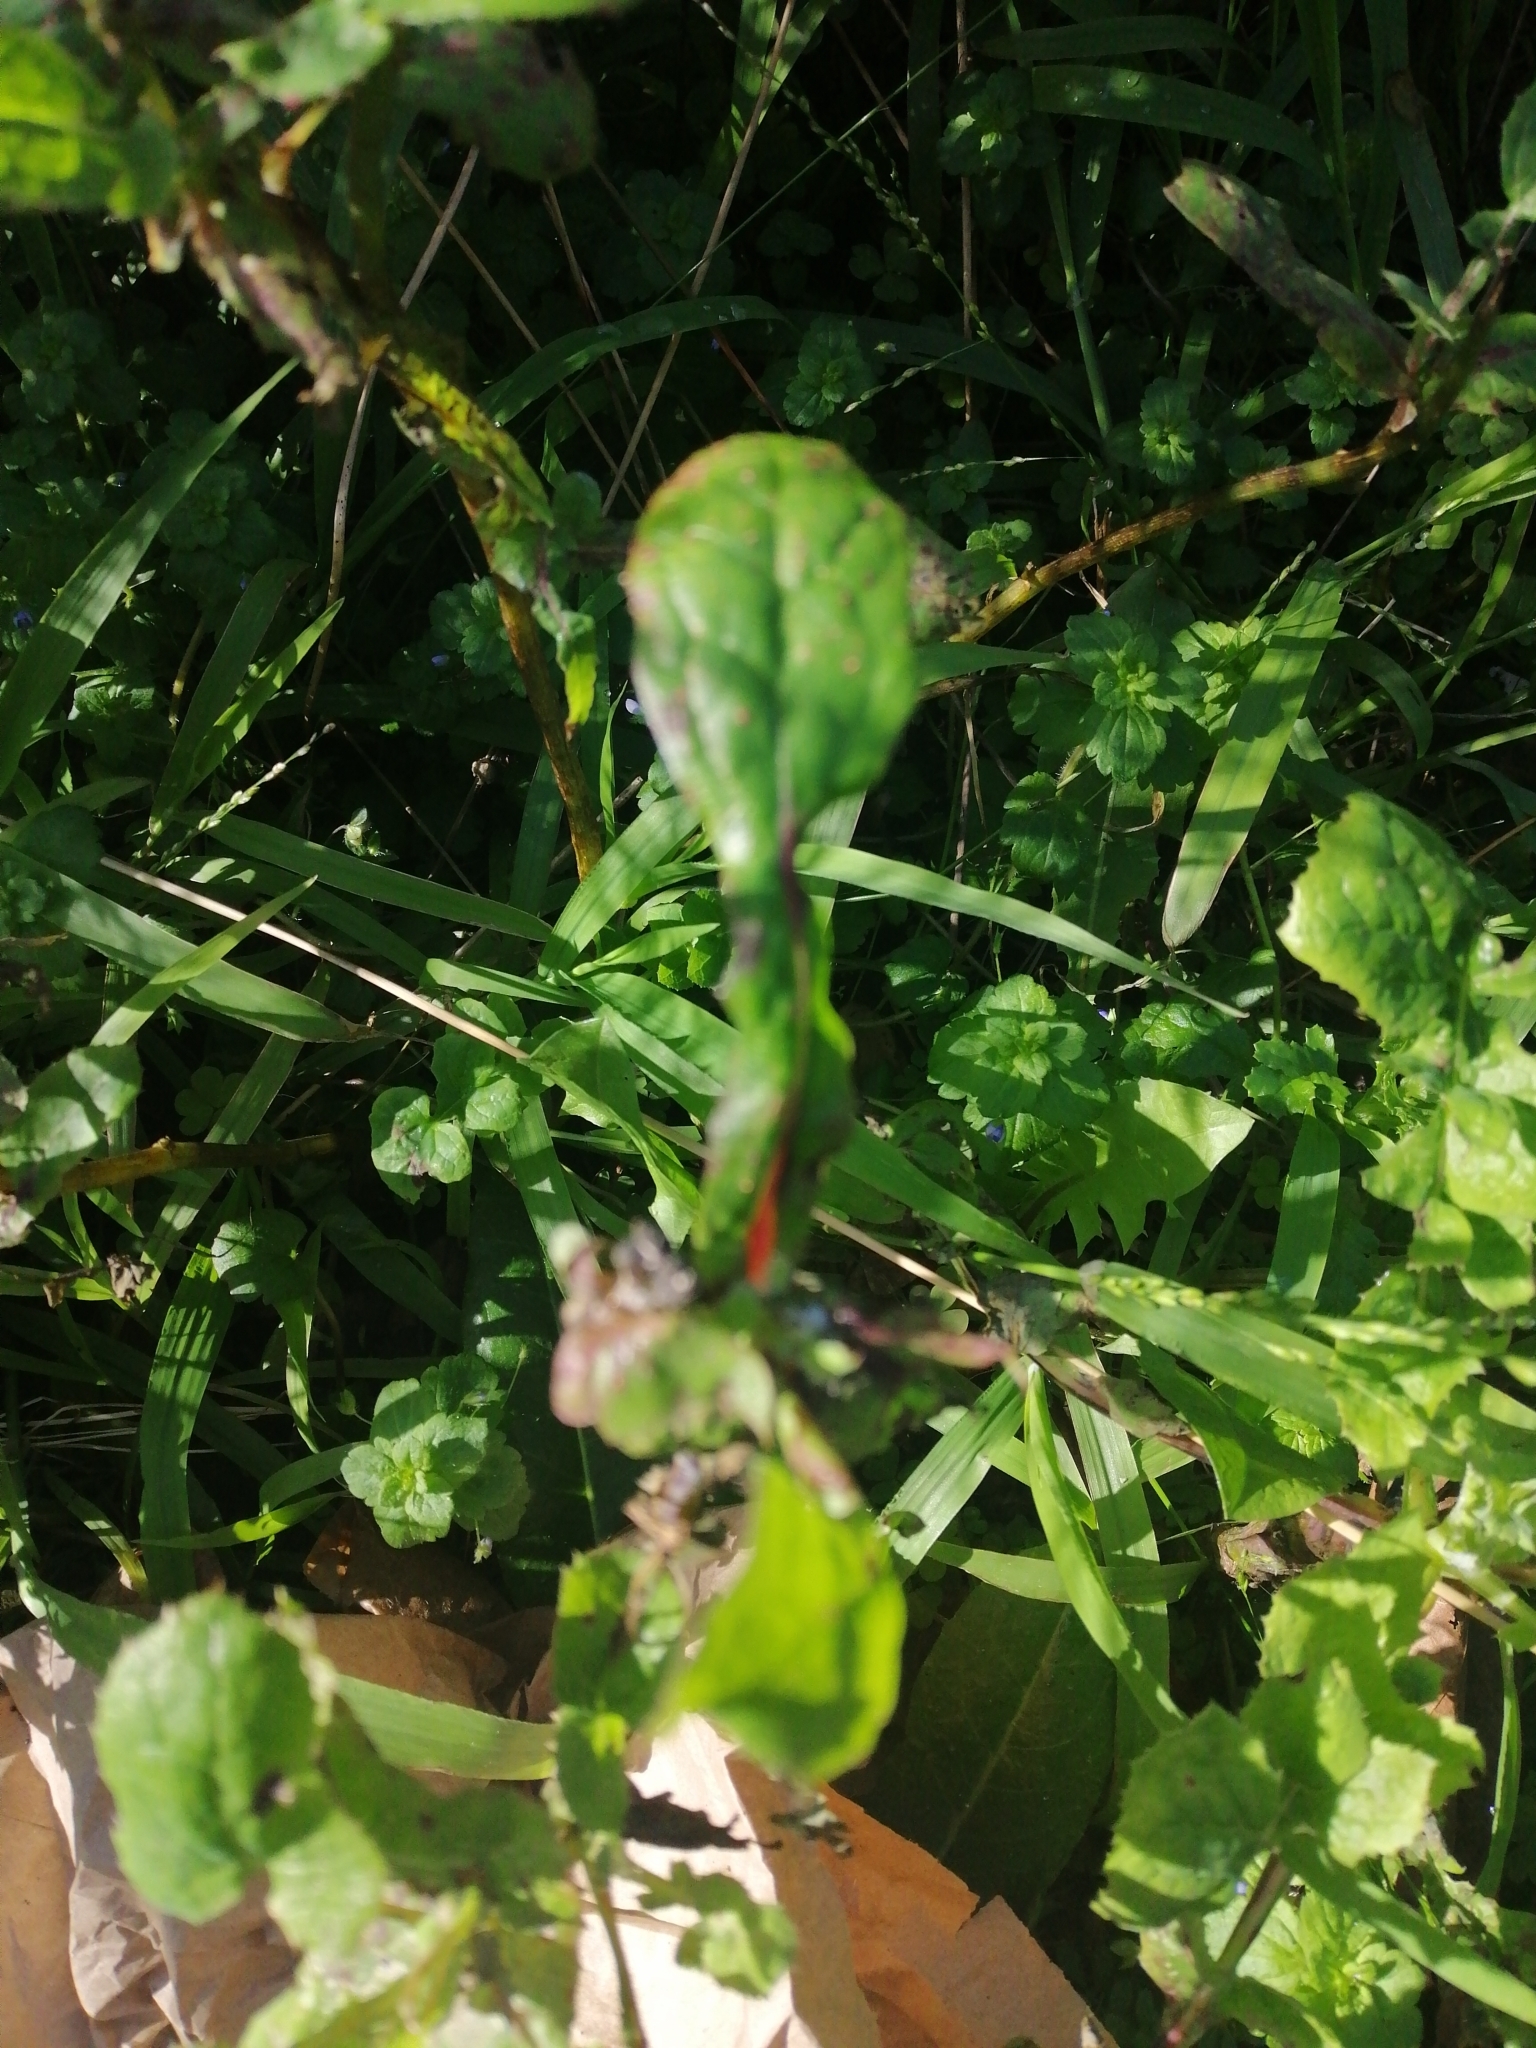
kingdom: Plantae
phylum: Tracheophyta
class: Magnoliopsida
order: Asterales
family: Asteraceae
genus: Sonchus
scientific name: Sonchus oleraceus
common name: Common sowthistle
